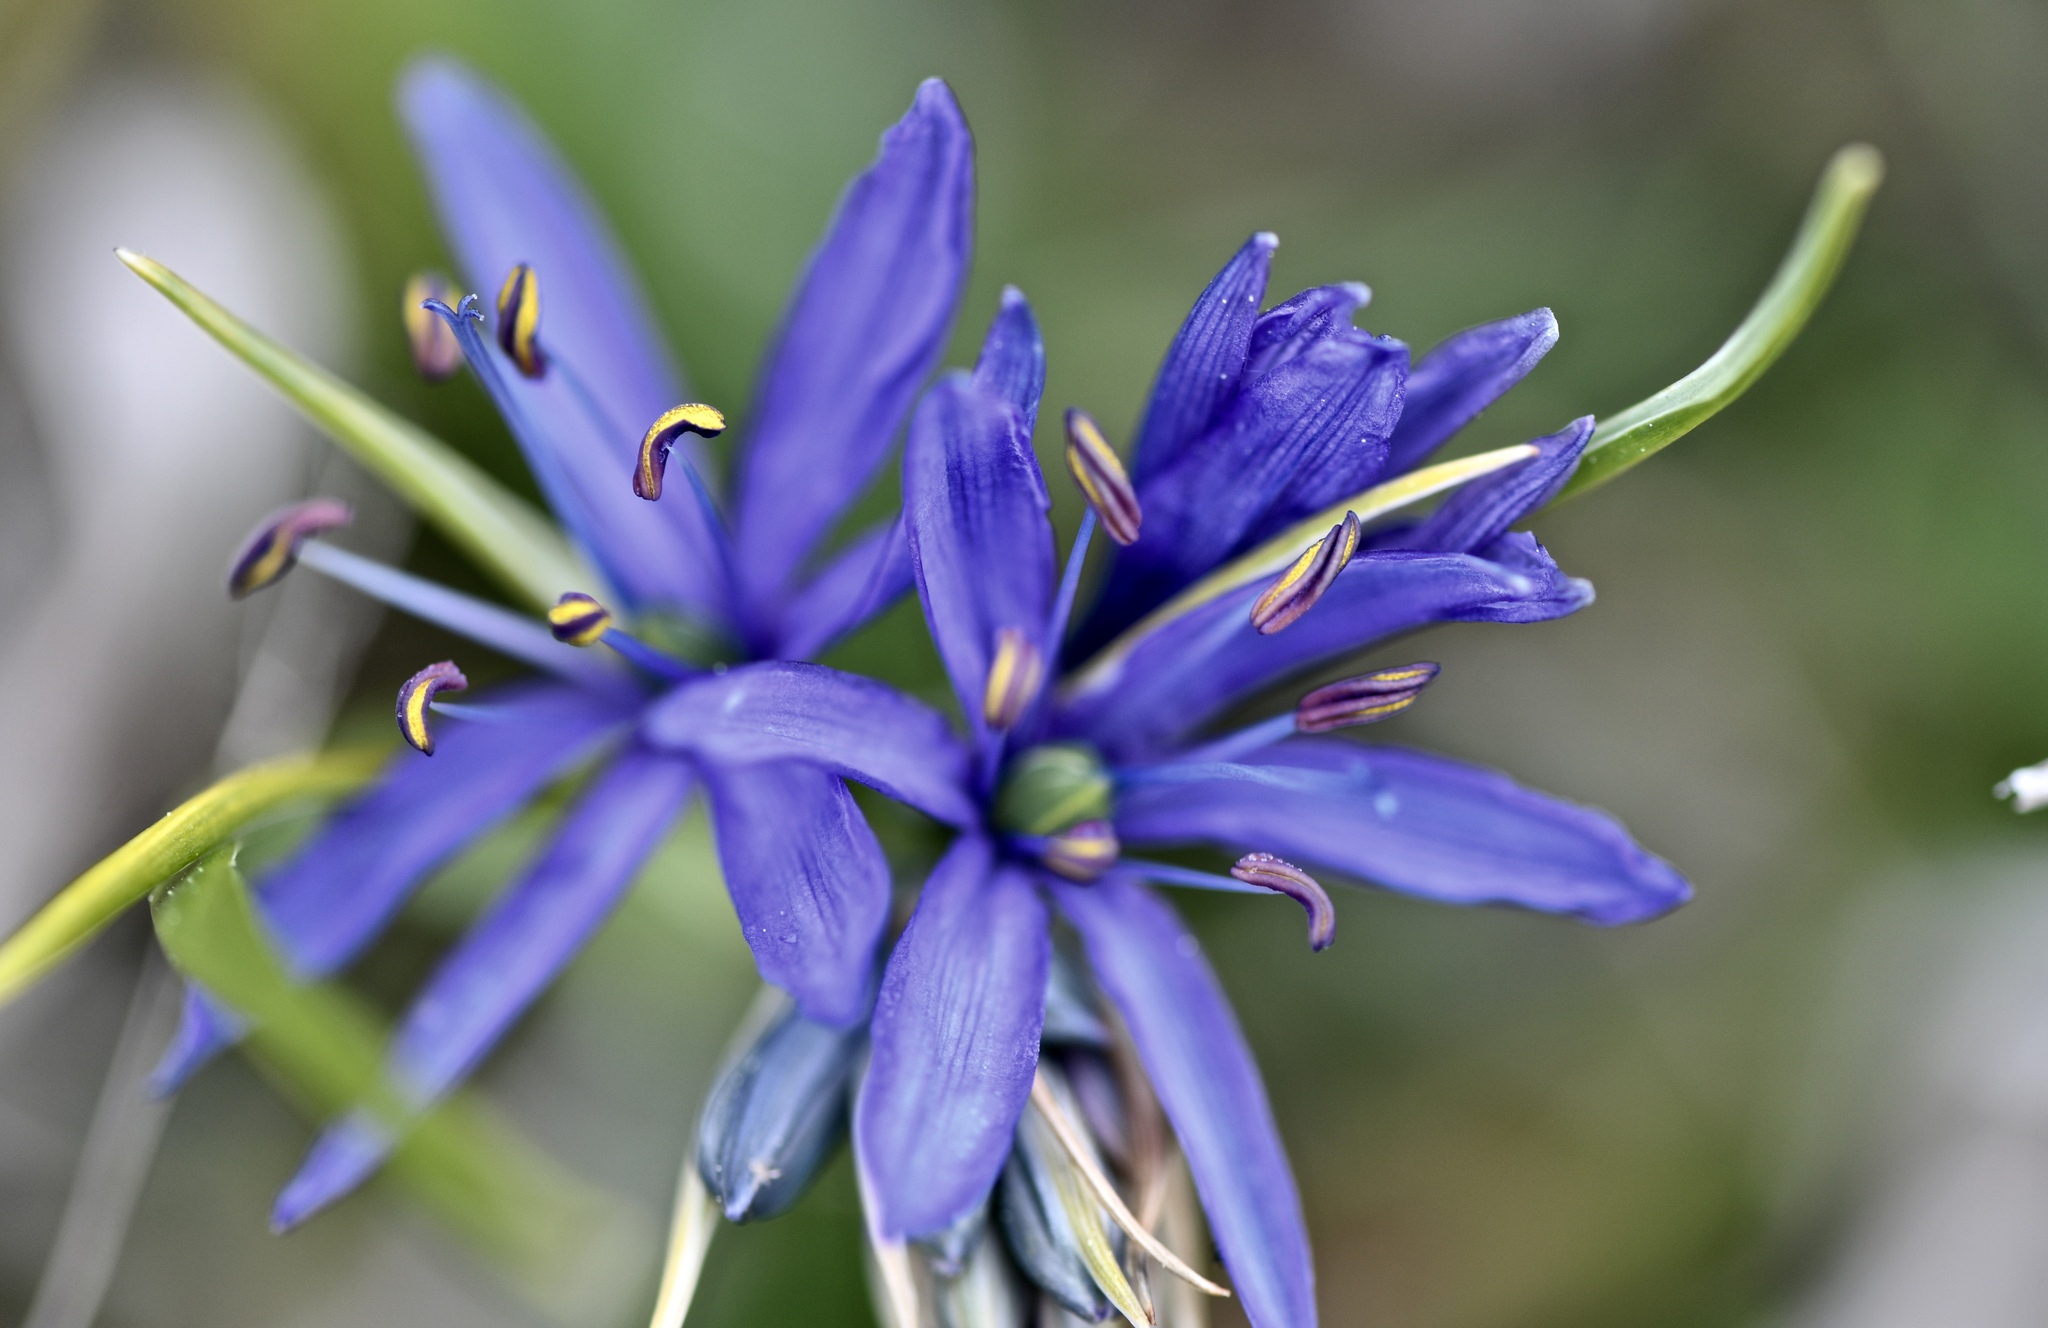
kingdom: Plantae
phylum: Tracheophyta
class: Liliopsida
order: Asparagales
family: Asparagaceae
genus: Camassia
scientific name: Camassia quamash
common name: Common camas
